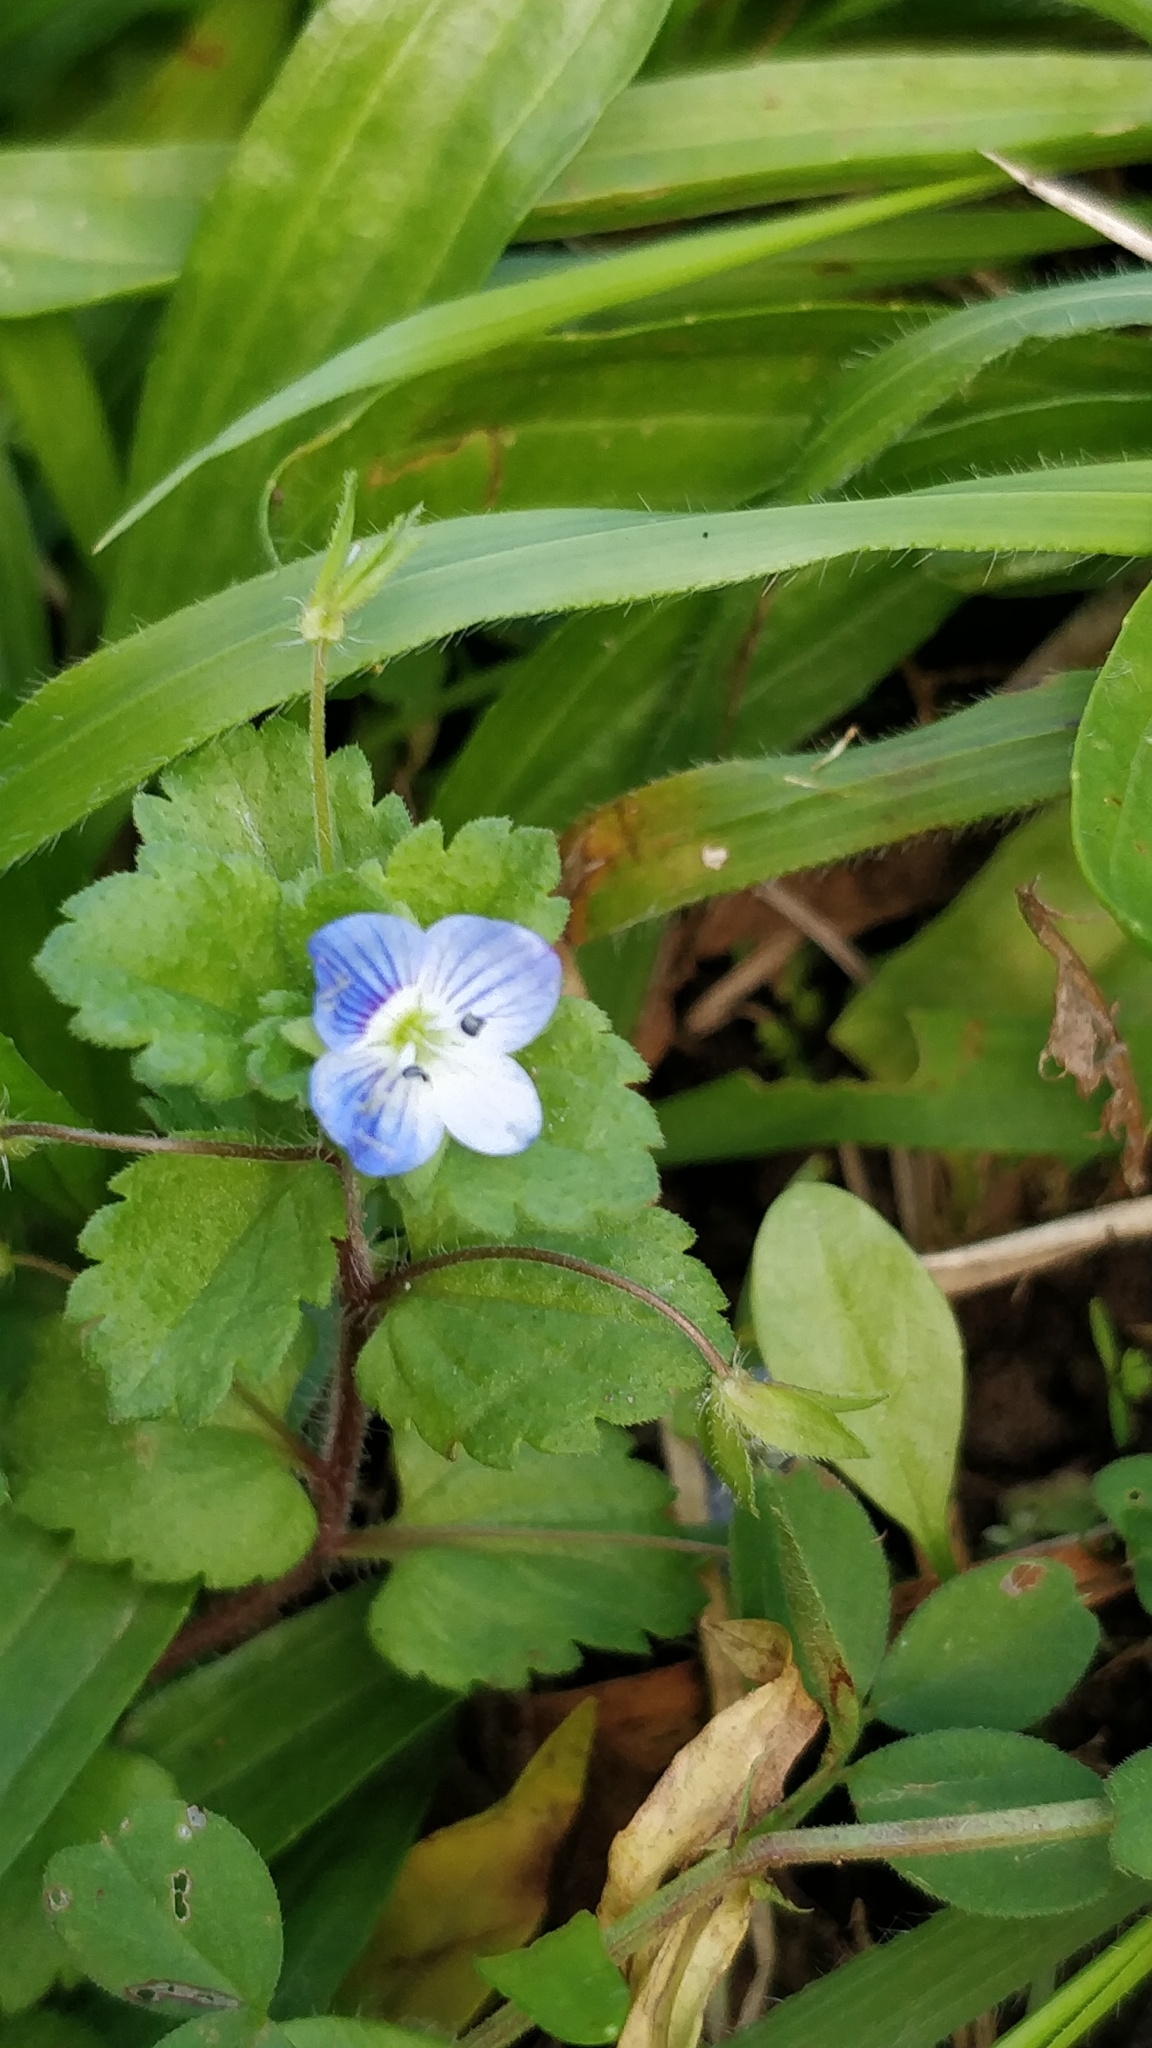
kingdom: Plantae
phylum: Tracheophyta
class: Magnoliopsida
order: Lamiales
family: Plantaginaceae
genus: Veronica
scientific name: Veronica persica
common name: Common field-speedwell
